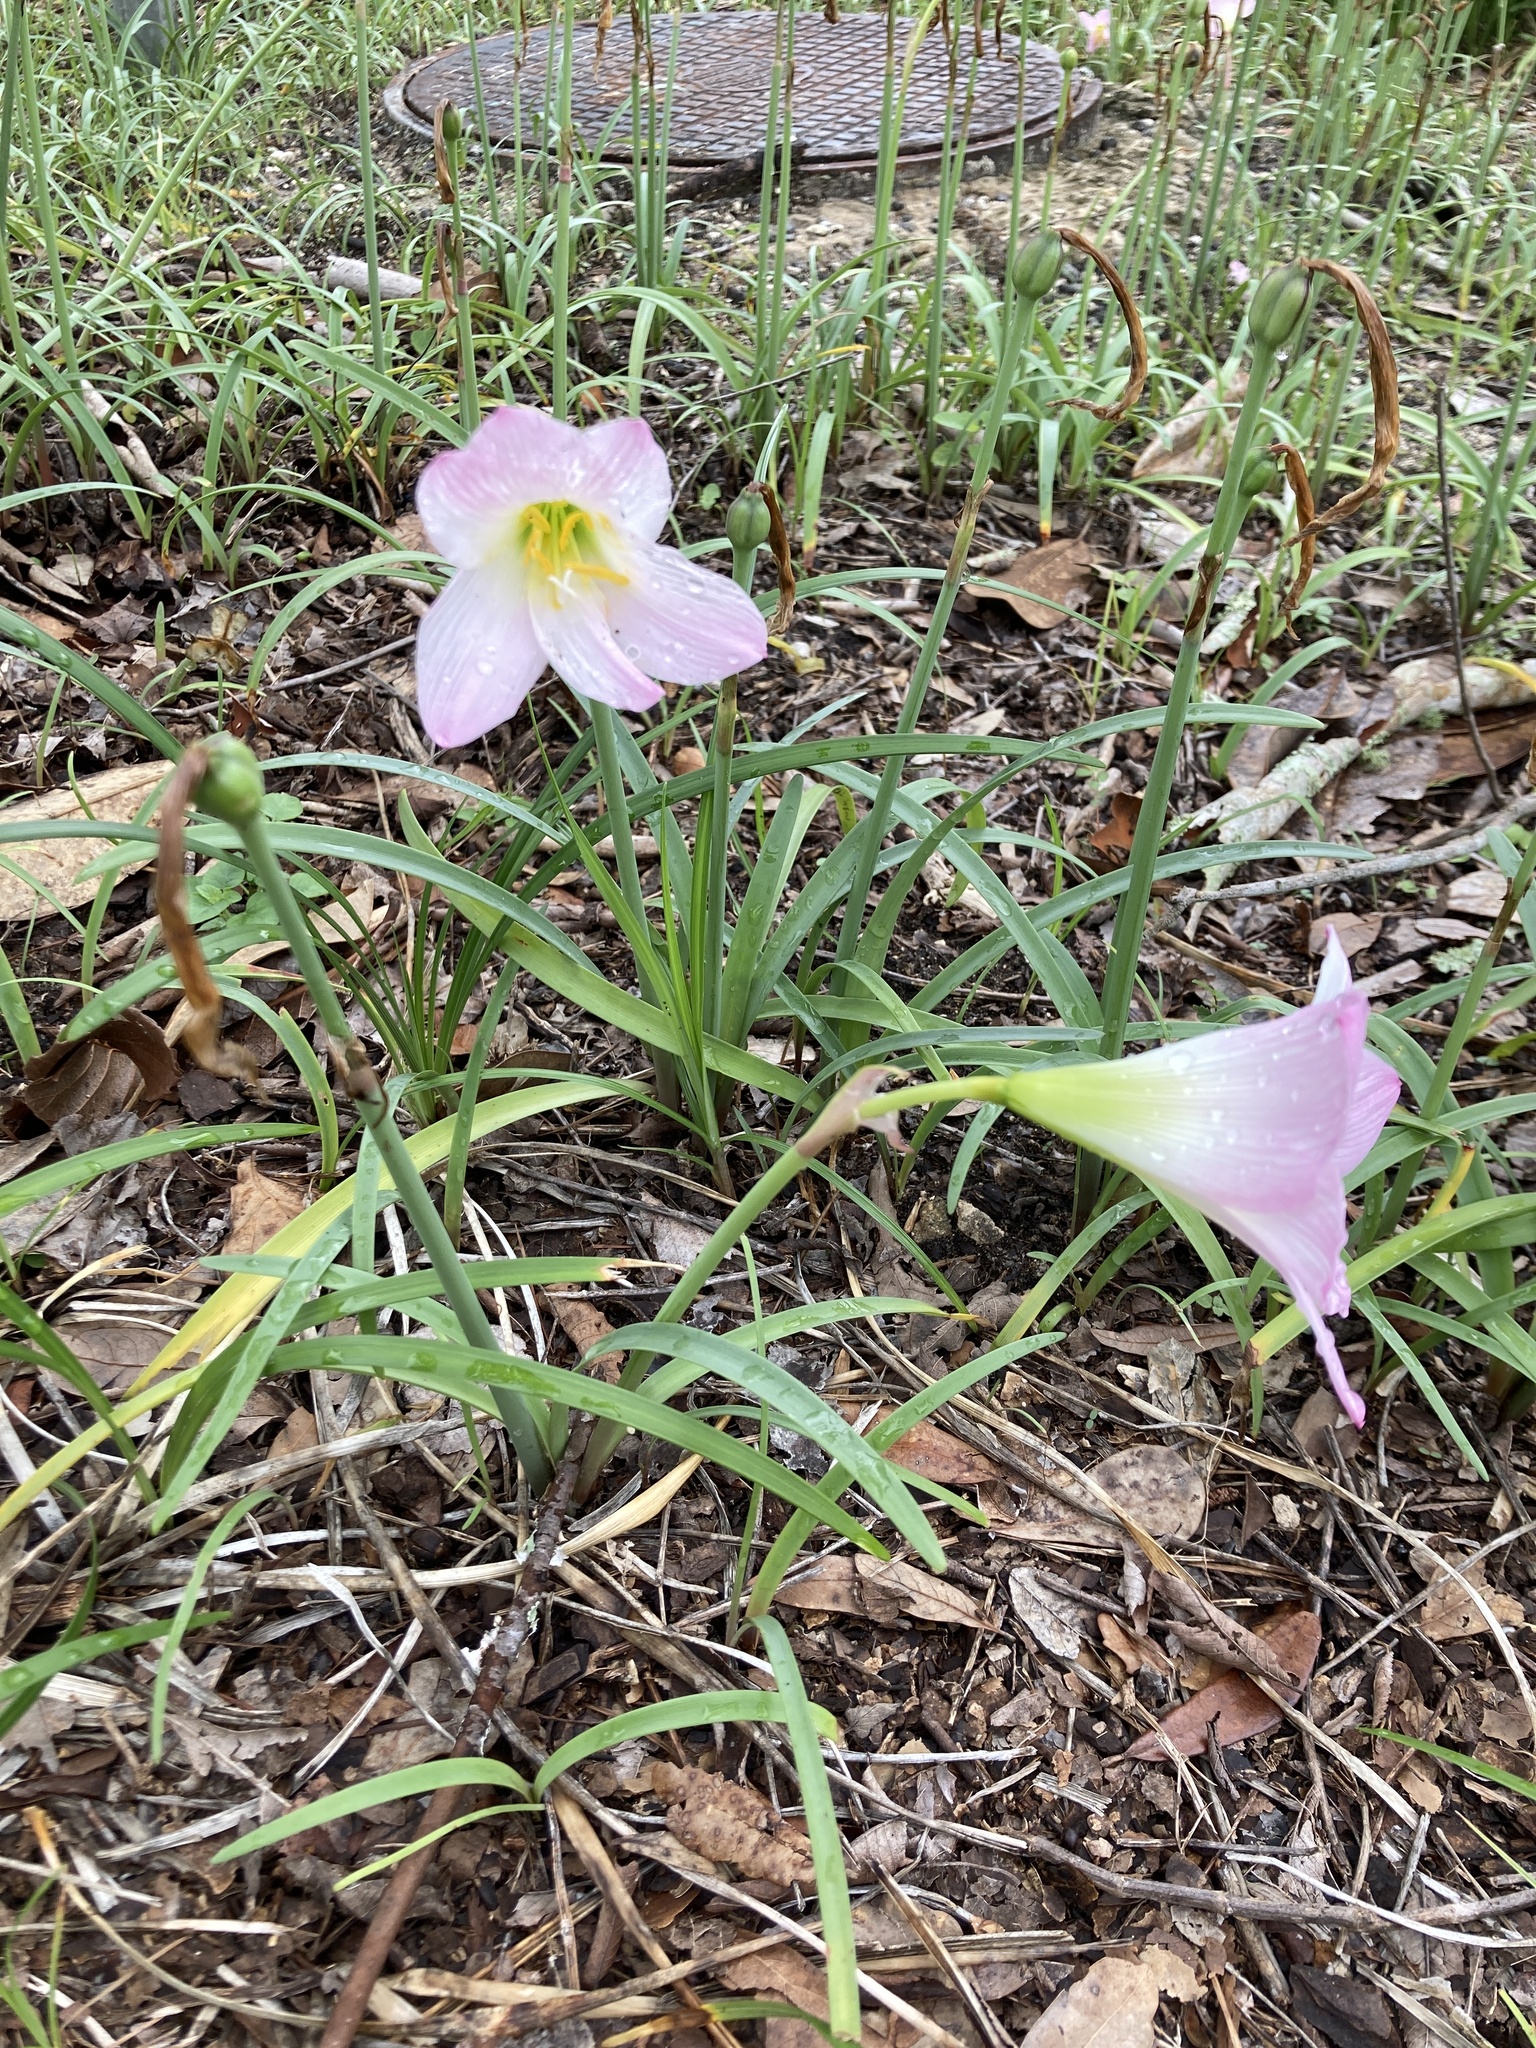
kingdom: Plantae
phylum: Tracheophyta
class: Liliopsida
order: Asparagales
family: Amaryllidaceae
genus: Zephyranthes
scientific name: Zephyranthes robusta
